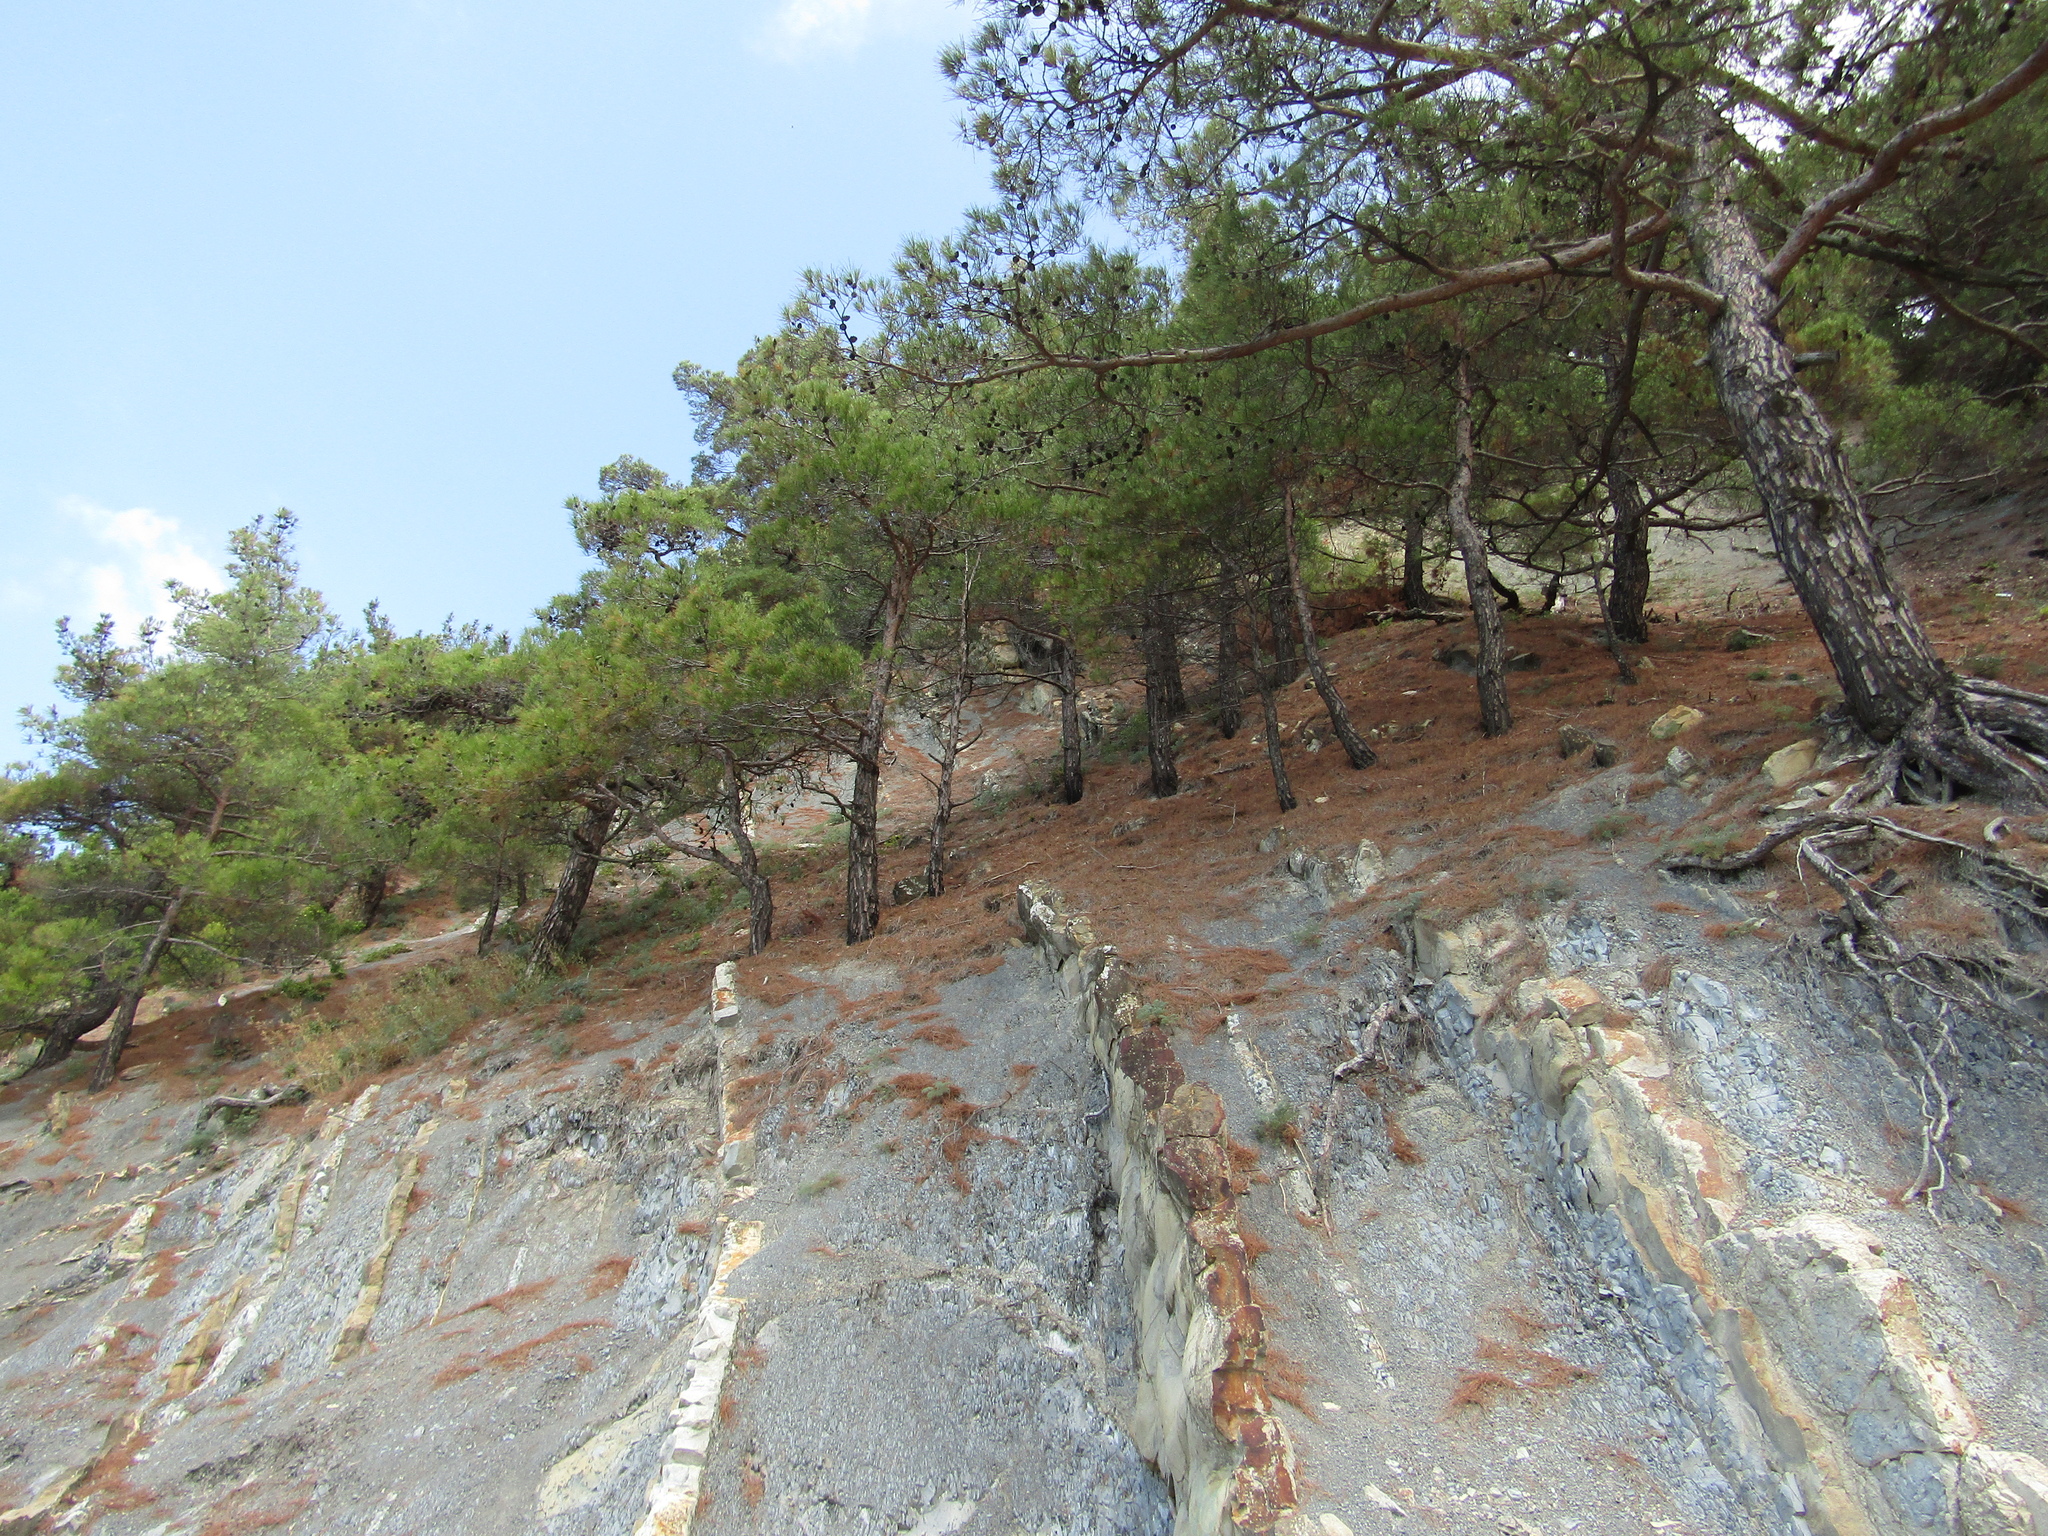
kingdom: Plantae
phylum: Tracheophyta
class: Pinopsida
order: Pinales
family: Pinaceae
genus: Pinus
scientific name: Pinus brutia
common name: Turkish pine
